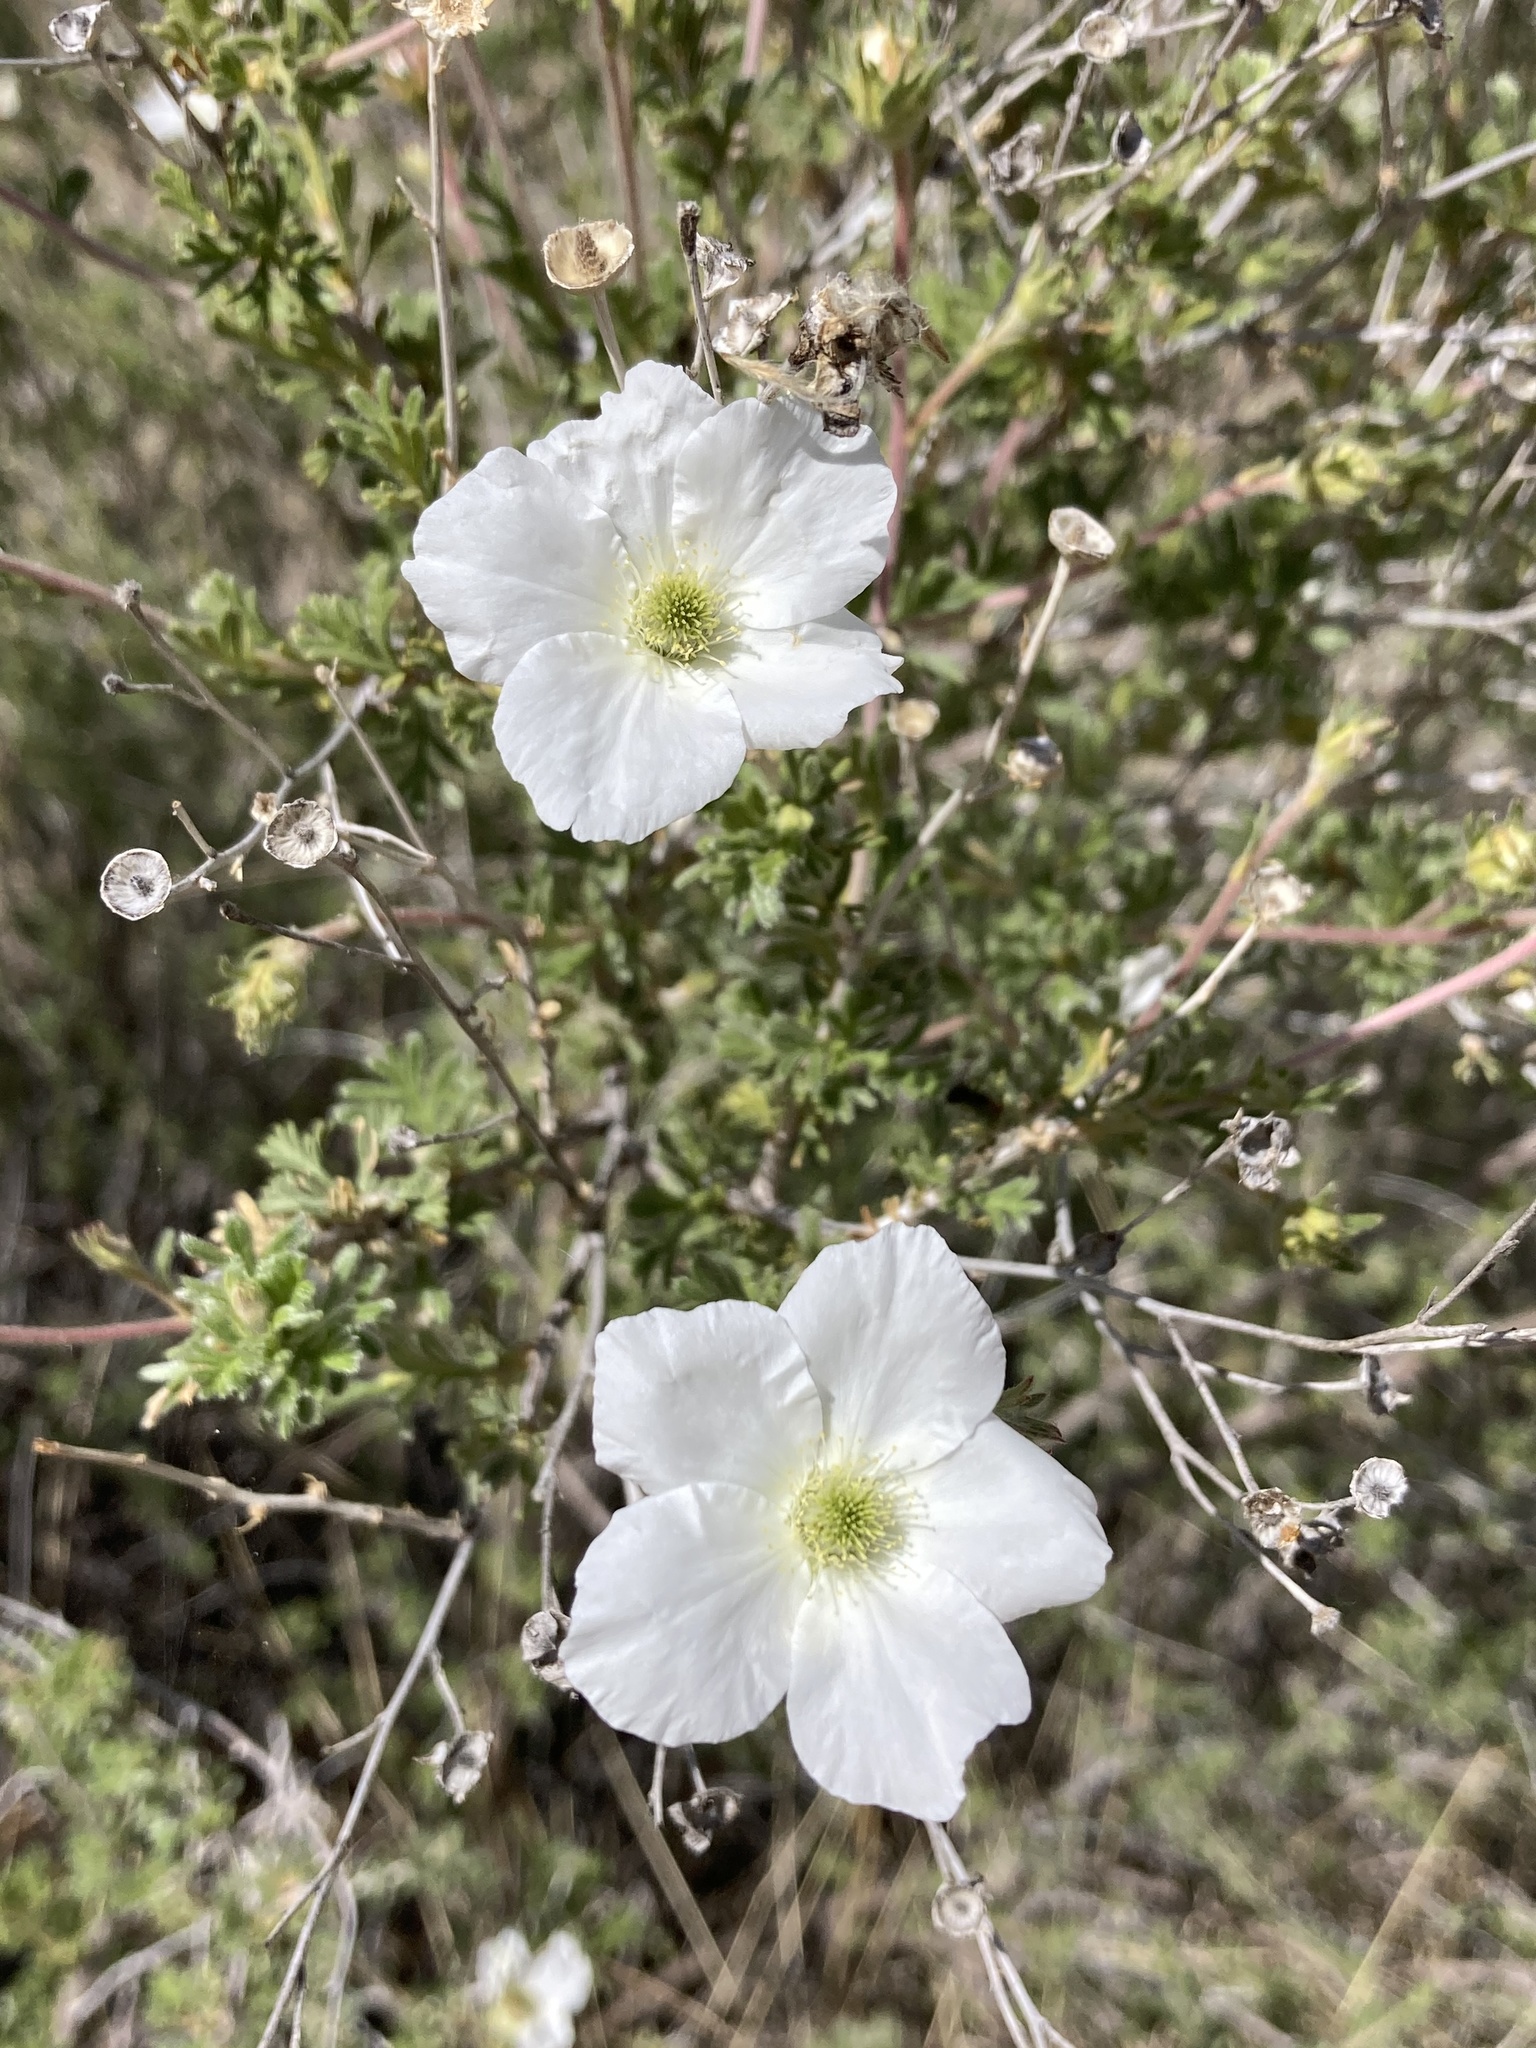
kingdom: Plantae
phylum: Tracheophyta
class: Magnoliopsida
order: Rosales
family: Rosaceae
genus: Fallugia
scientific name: Fallugia paradoxa
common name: Apache-plume
